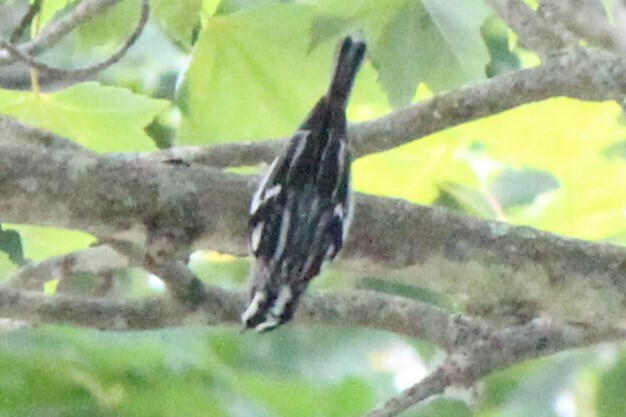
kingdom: Animalia
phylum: Chordata
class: Aves
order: Passeriformes
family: Parulidae
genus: Mniotilta
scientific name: Mniotilta varia
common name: Black-and-white warbler
